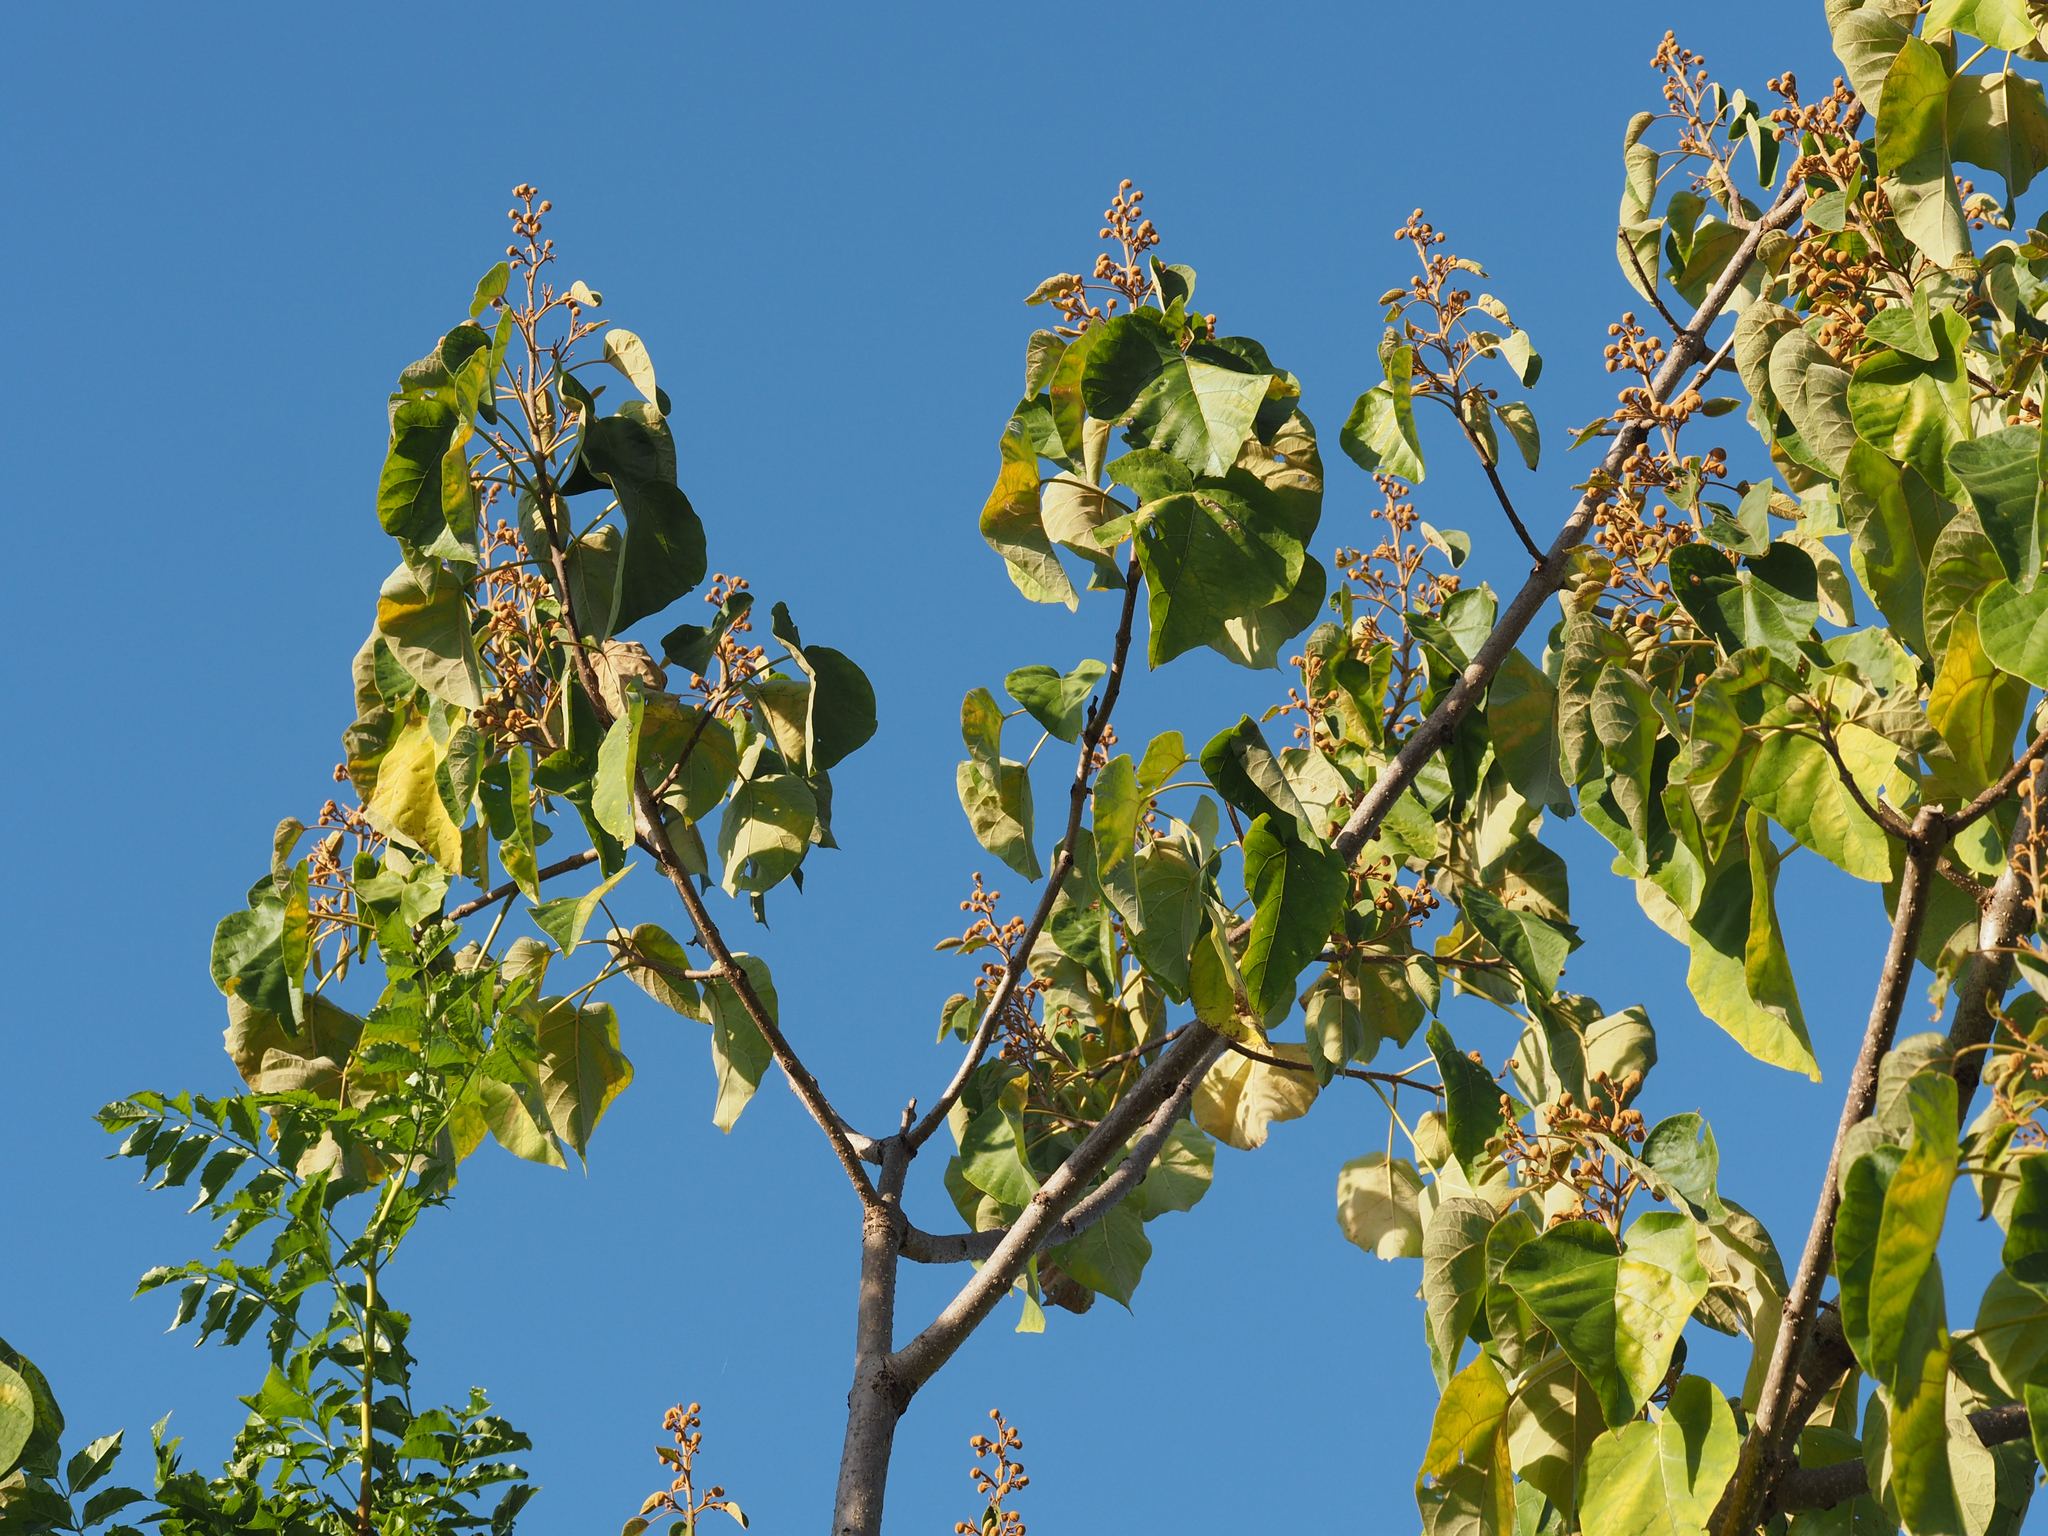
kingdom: Plantae
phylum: Tracheophyta
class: Magnoliopsida
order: Lamiales
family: Paulowniaceae
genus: Paulownia
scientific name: Paulownia tomentosa
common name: Foxglove-tree
